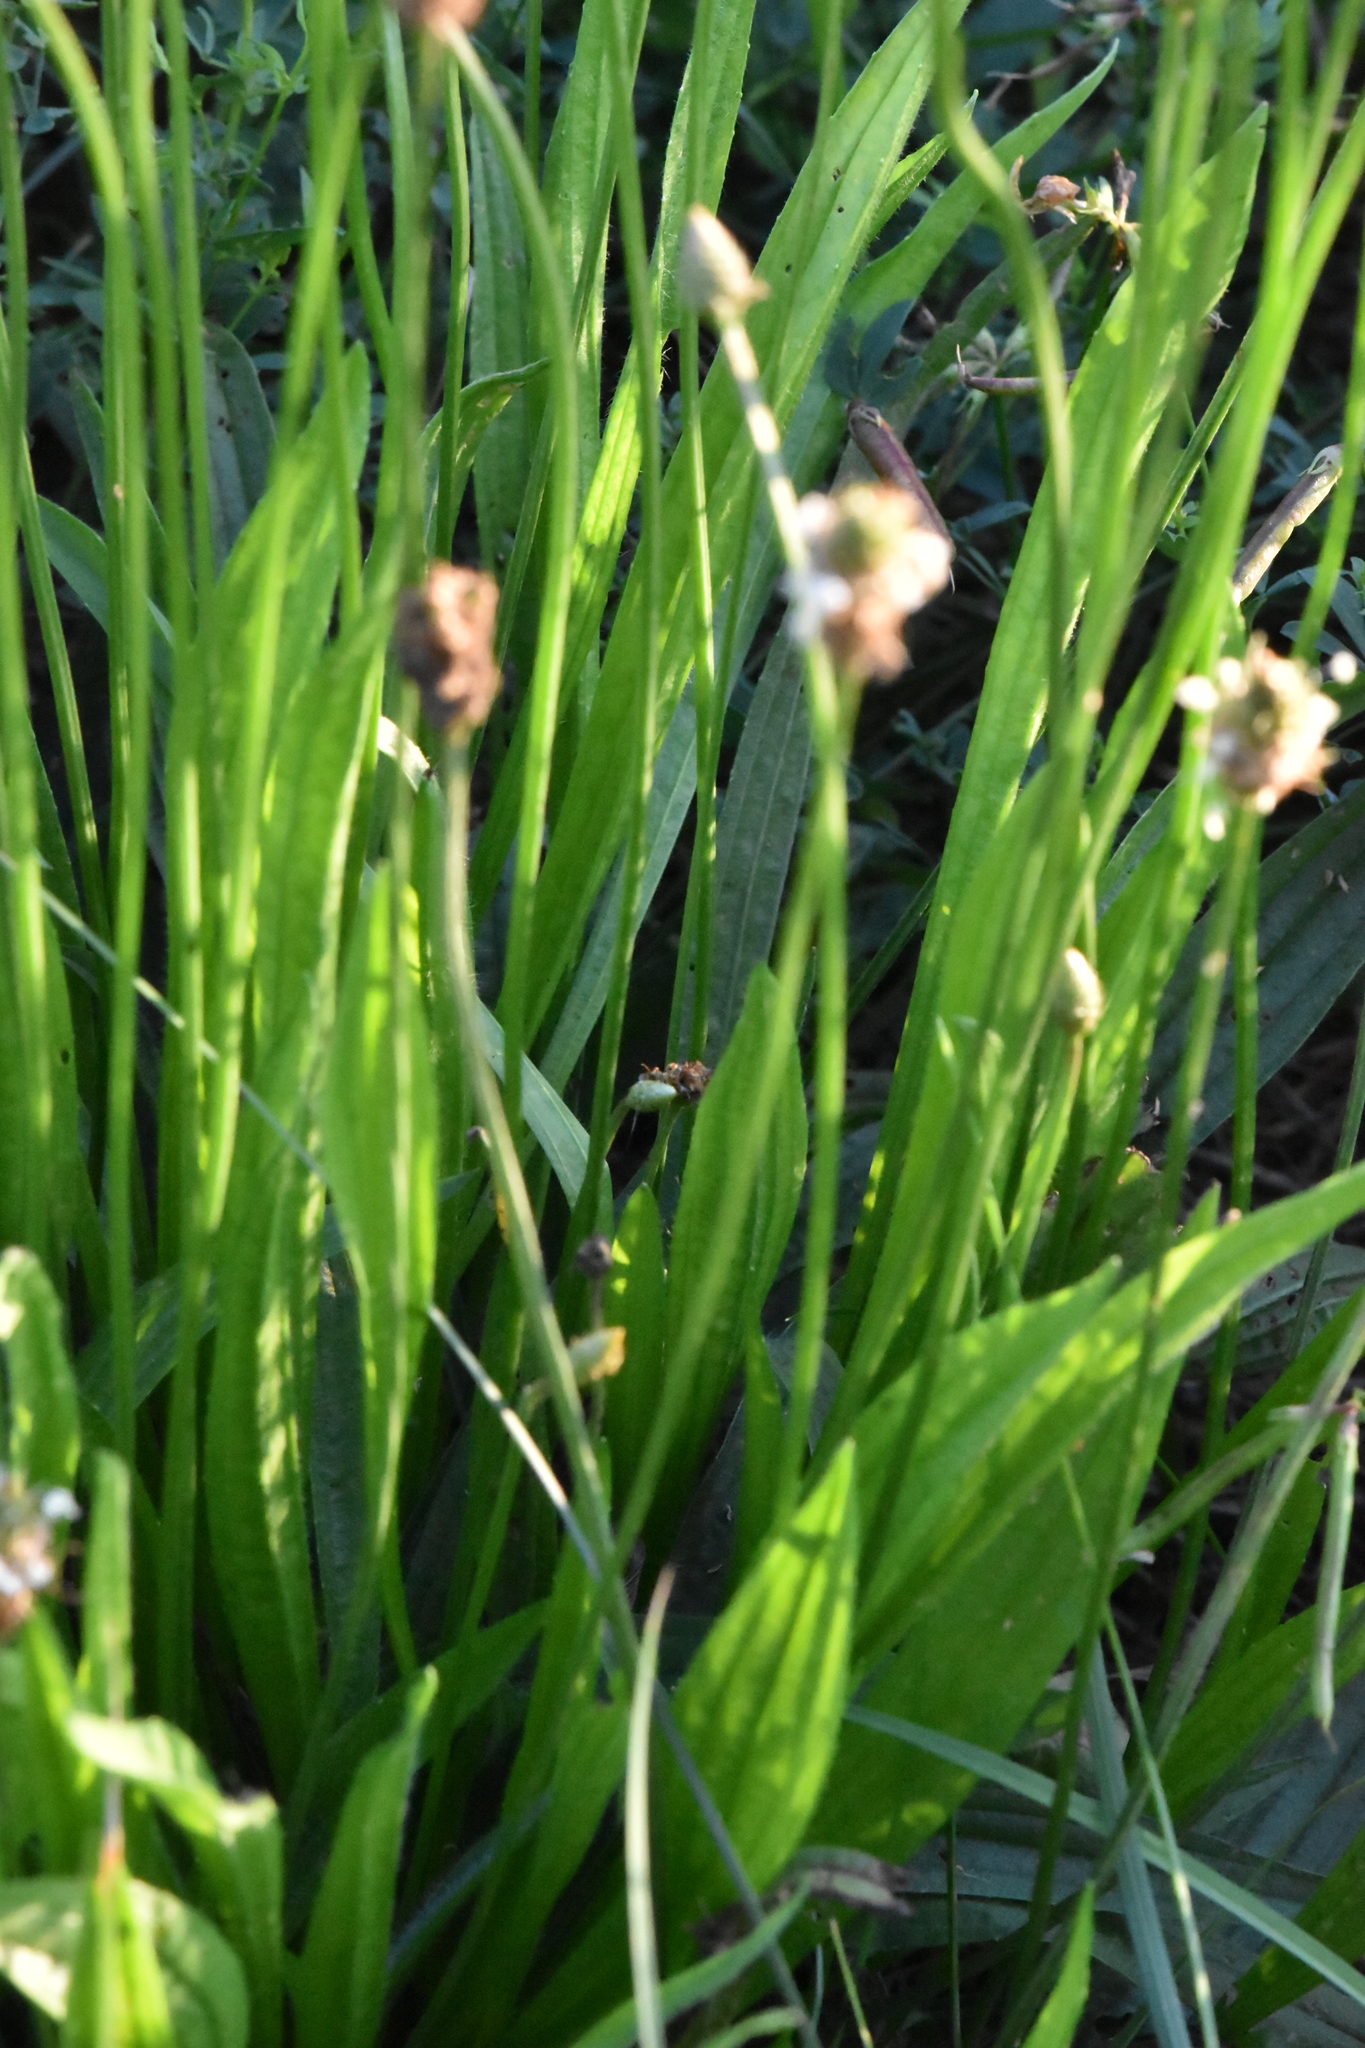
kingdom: Plantae
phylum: Tracheophyta
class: Magnoliopsida
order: Lamiales
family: Plantaginaceae
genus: Plantago
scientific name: Plantago lanceolata
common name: Ribwort plantain
